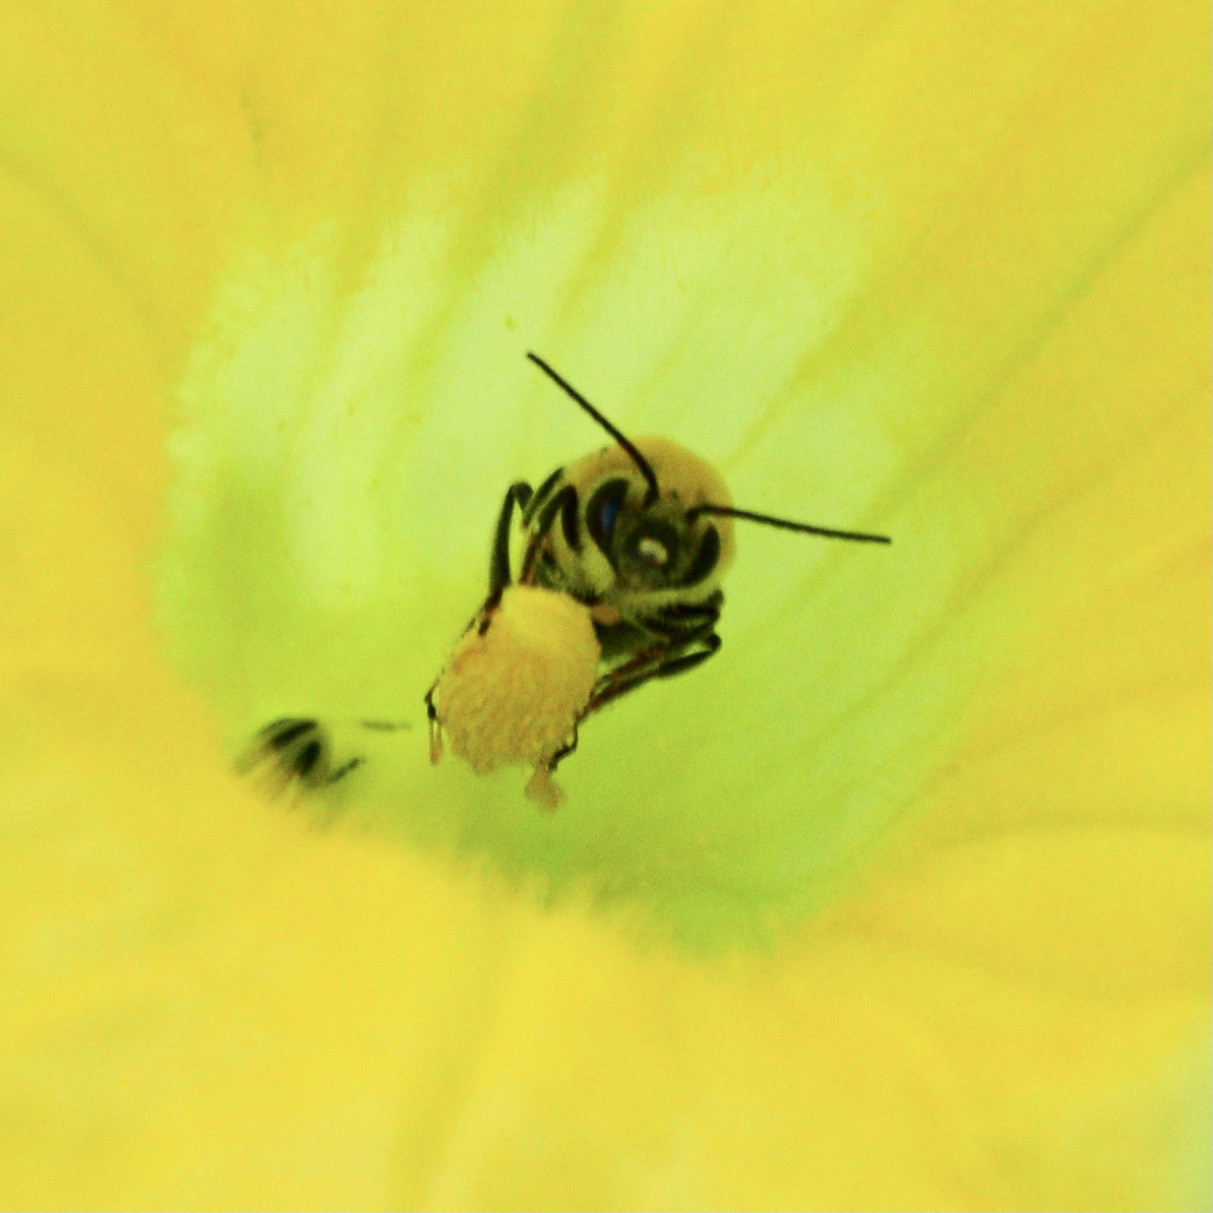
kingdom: Animalia
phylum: Arthropoda
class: Insecta
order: Hymenoptera
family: Apidae
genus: Peponapis
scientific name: Peponapis pruinosa
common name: Pruinose squash bee
